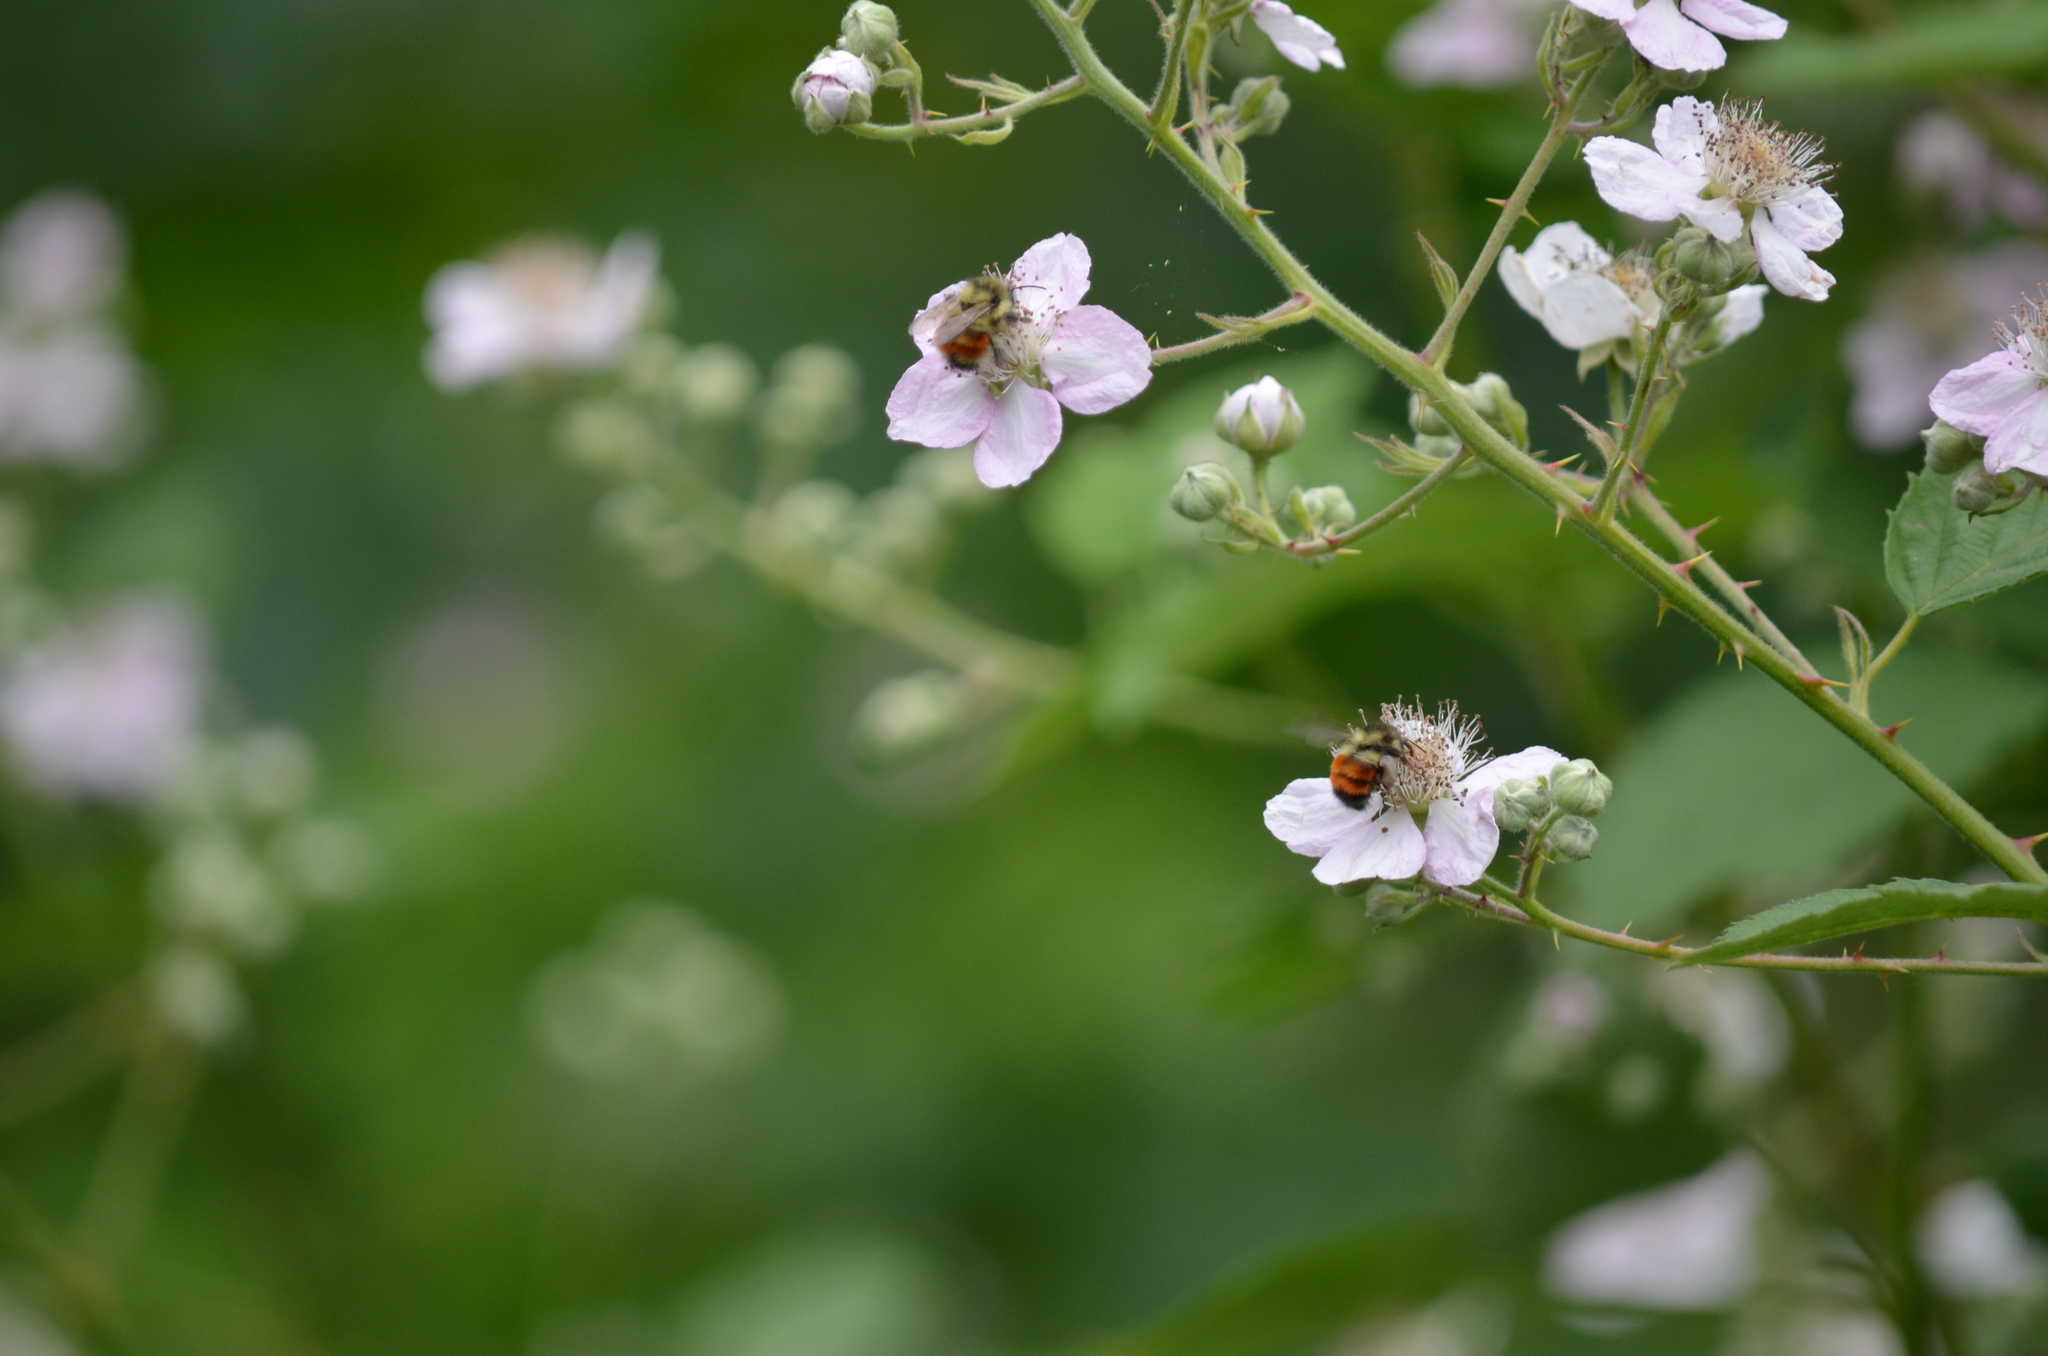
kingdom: Animalia
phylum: Arthropoda
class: Insecta
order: Hymenoptera
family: Apidae
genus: Bombus
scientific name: Bombus melanopygus
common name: Black tail bumble bee
